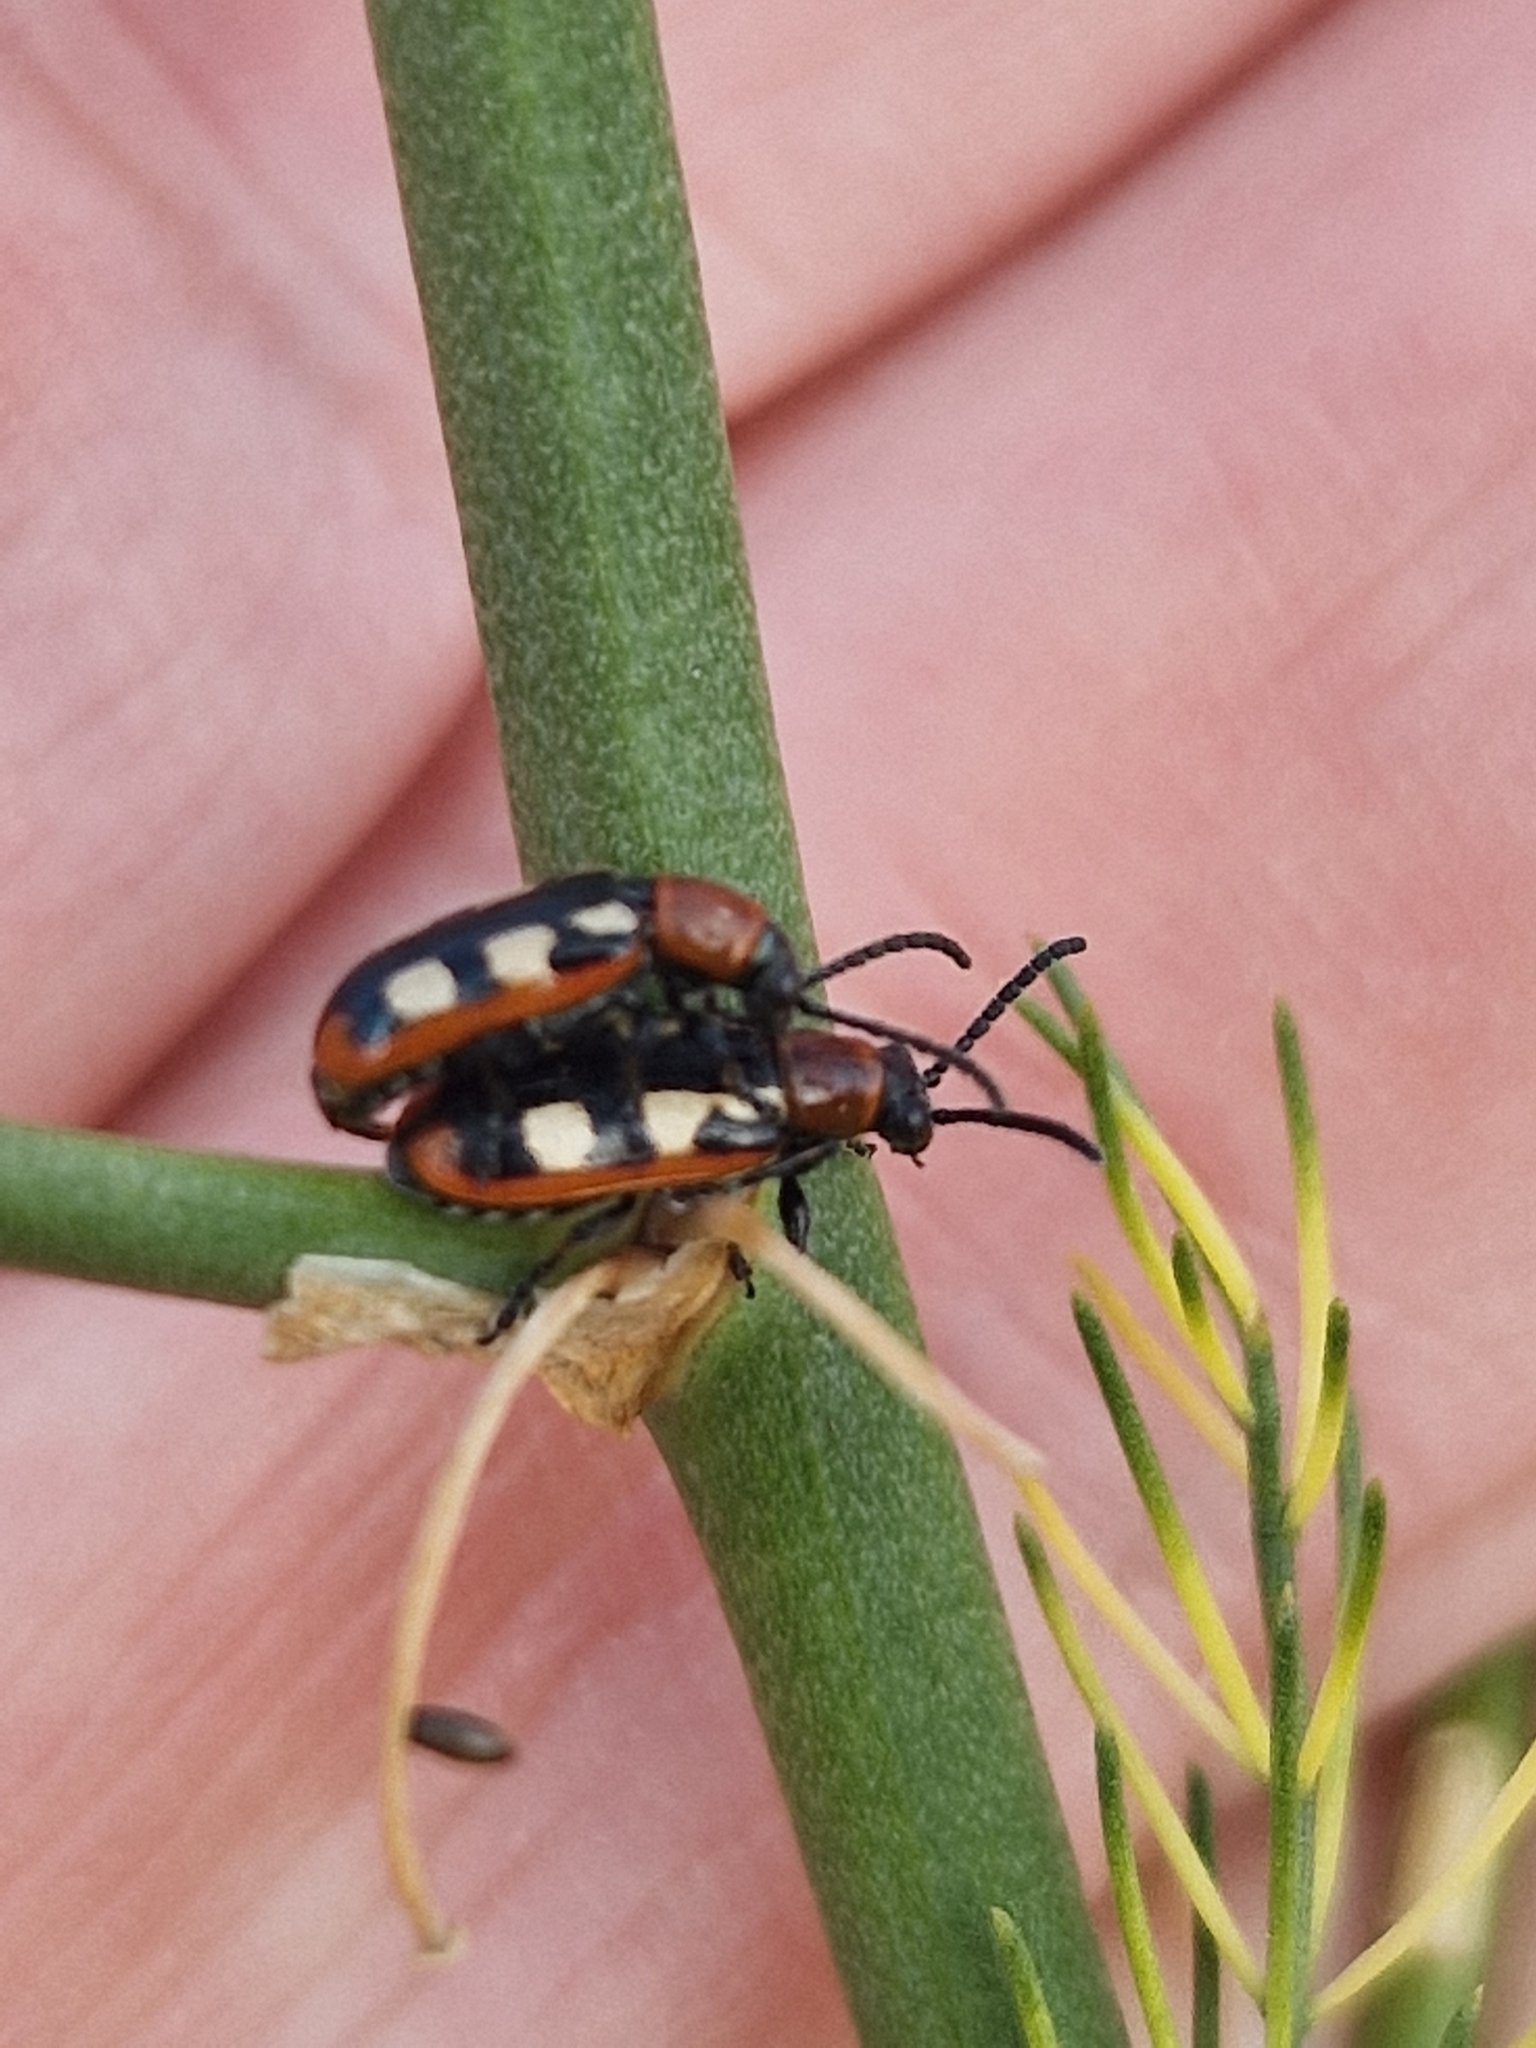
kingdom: Animalia
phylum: Arthropoda
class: Insecta
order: Coleoptera
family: Chrysomelidae
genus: Crioceris
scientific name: Crioceris asparagi
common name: Asparagus beetle
